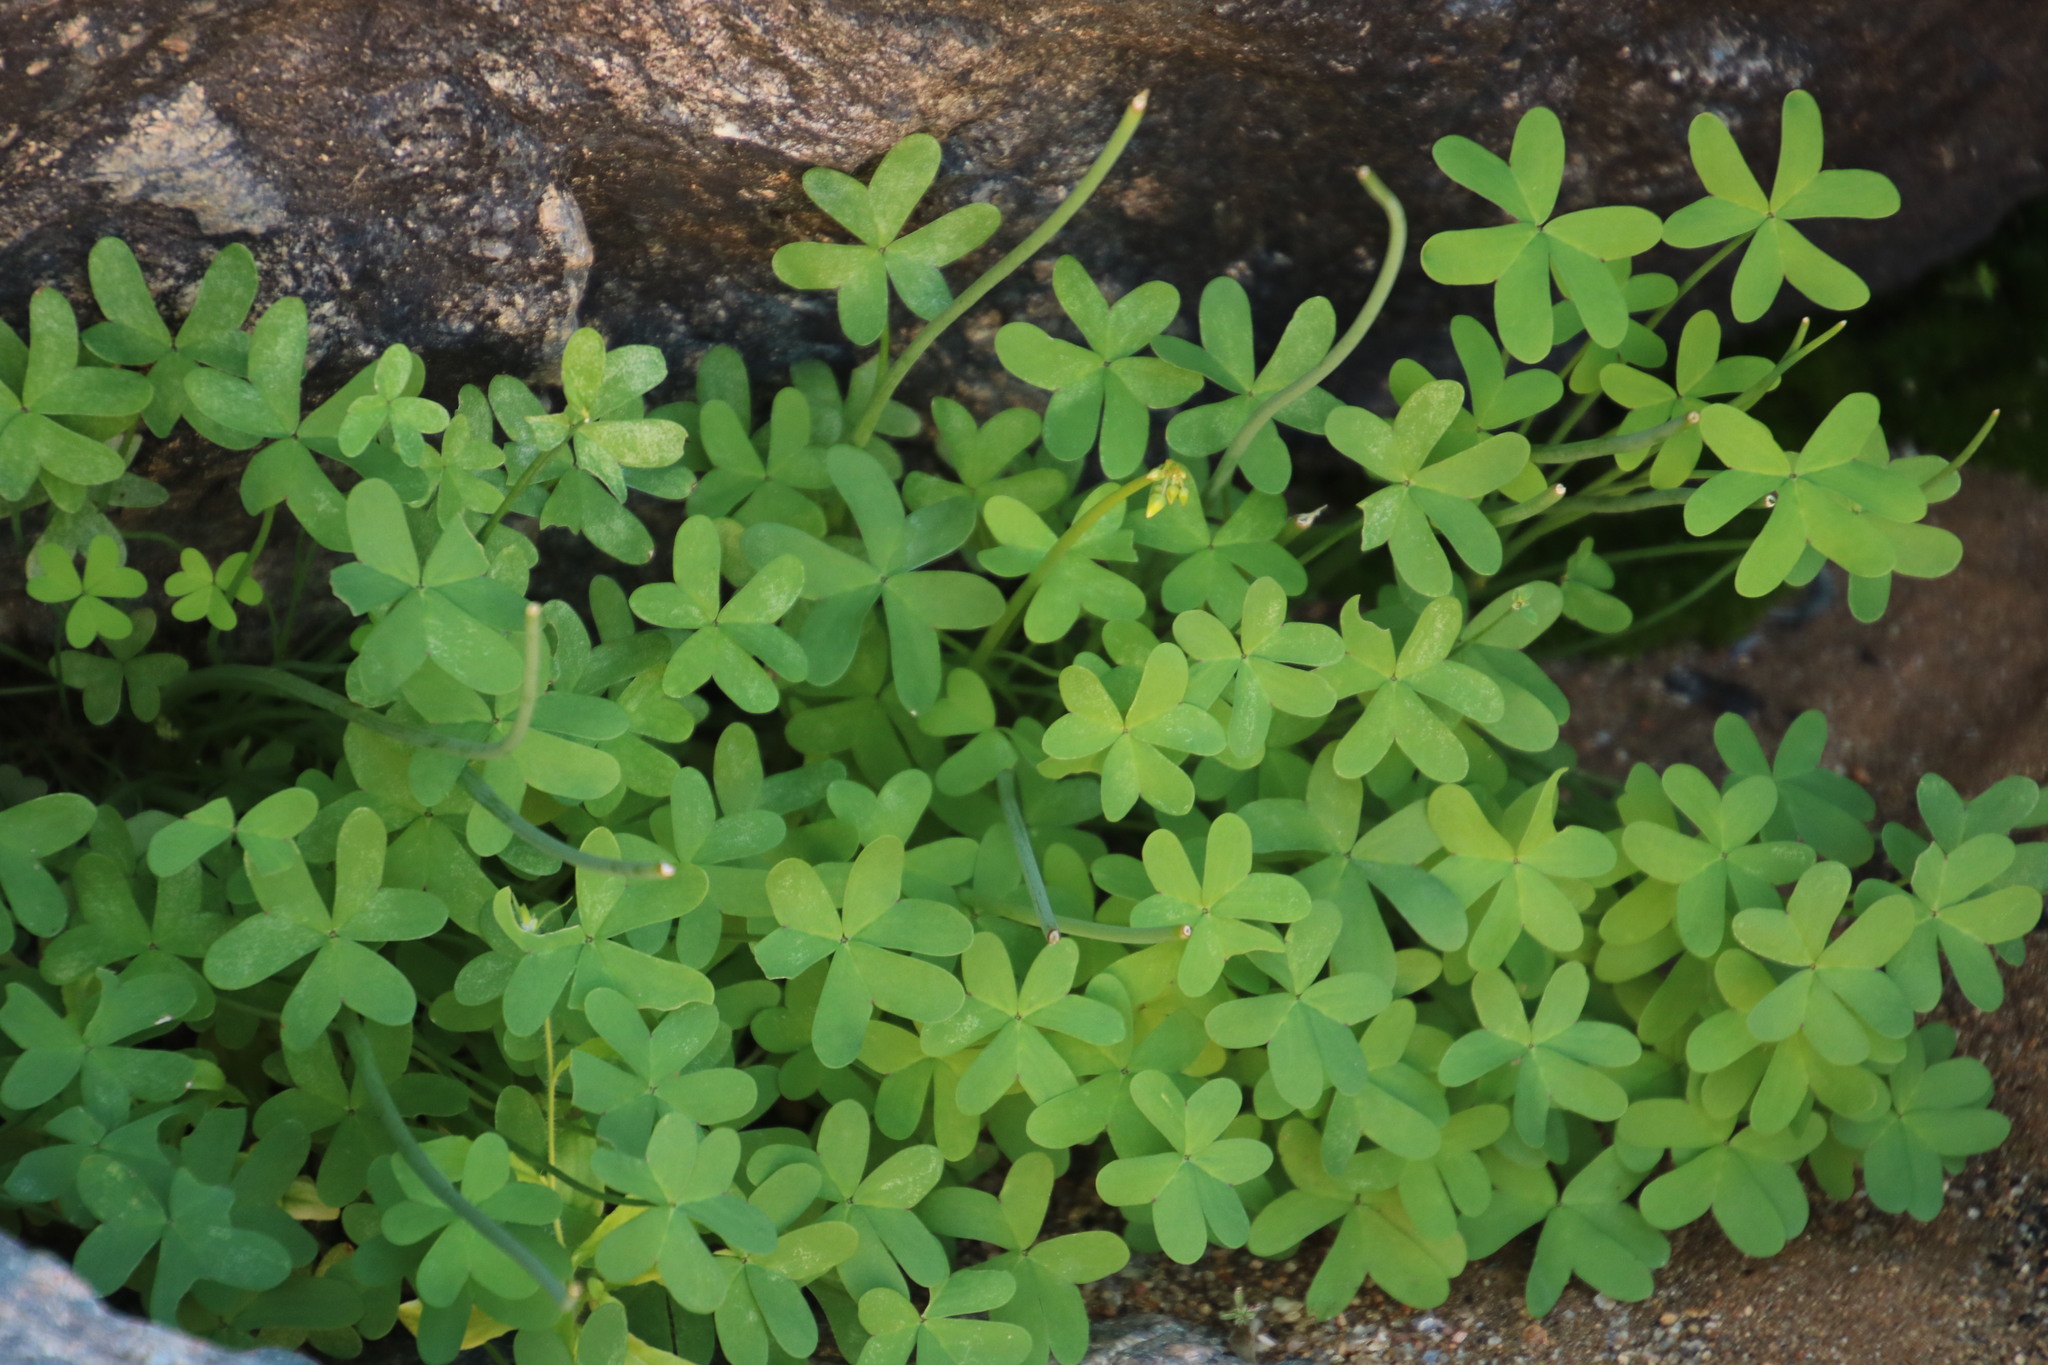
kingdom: Plantae
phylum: Tracheophyta
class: Magnoliopsida
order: Oxalidales
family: Oxalidaceae
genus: Oxalis
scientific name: Oxalis pes-caprae
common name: Bermuda-buttercup
